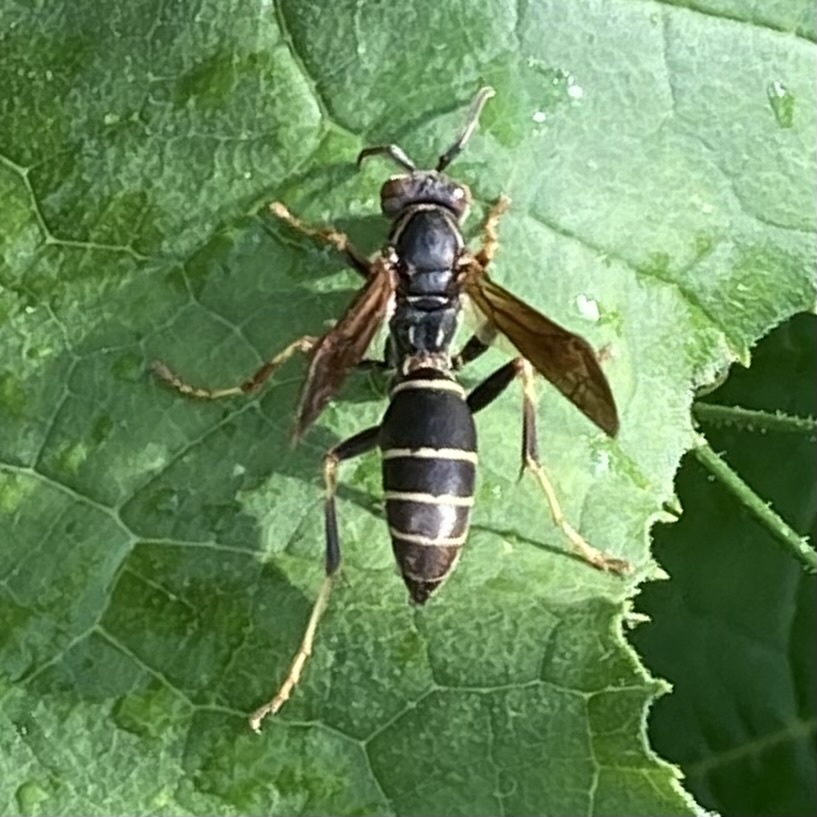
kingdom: Animalia
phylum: Arthropoda
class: Insecta
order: Hymenoptera
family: Eumenidae
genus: Polistes
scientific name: Polistes fuscatus
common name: Dark paper wasp
